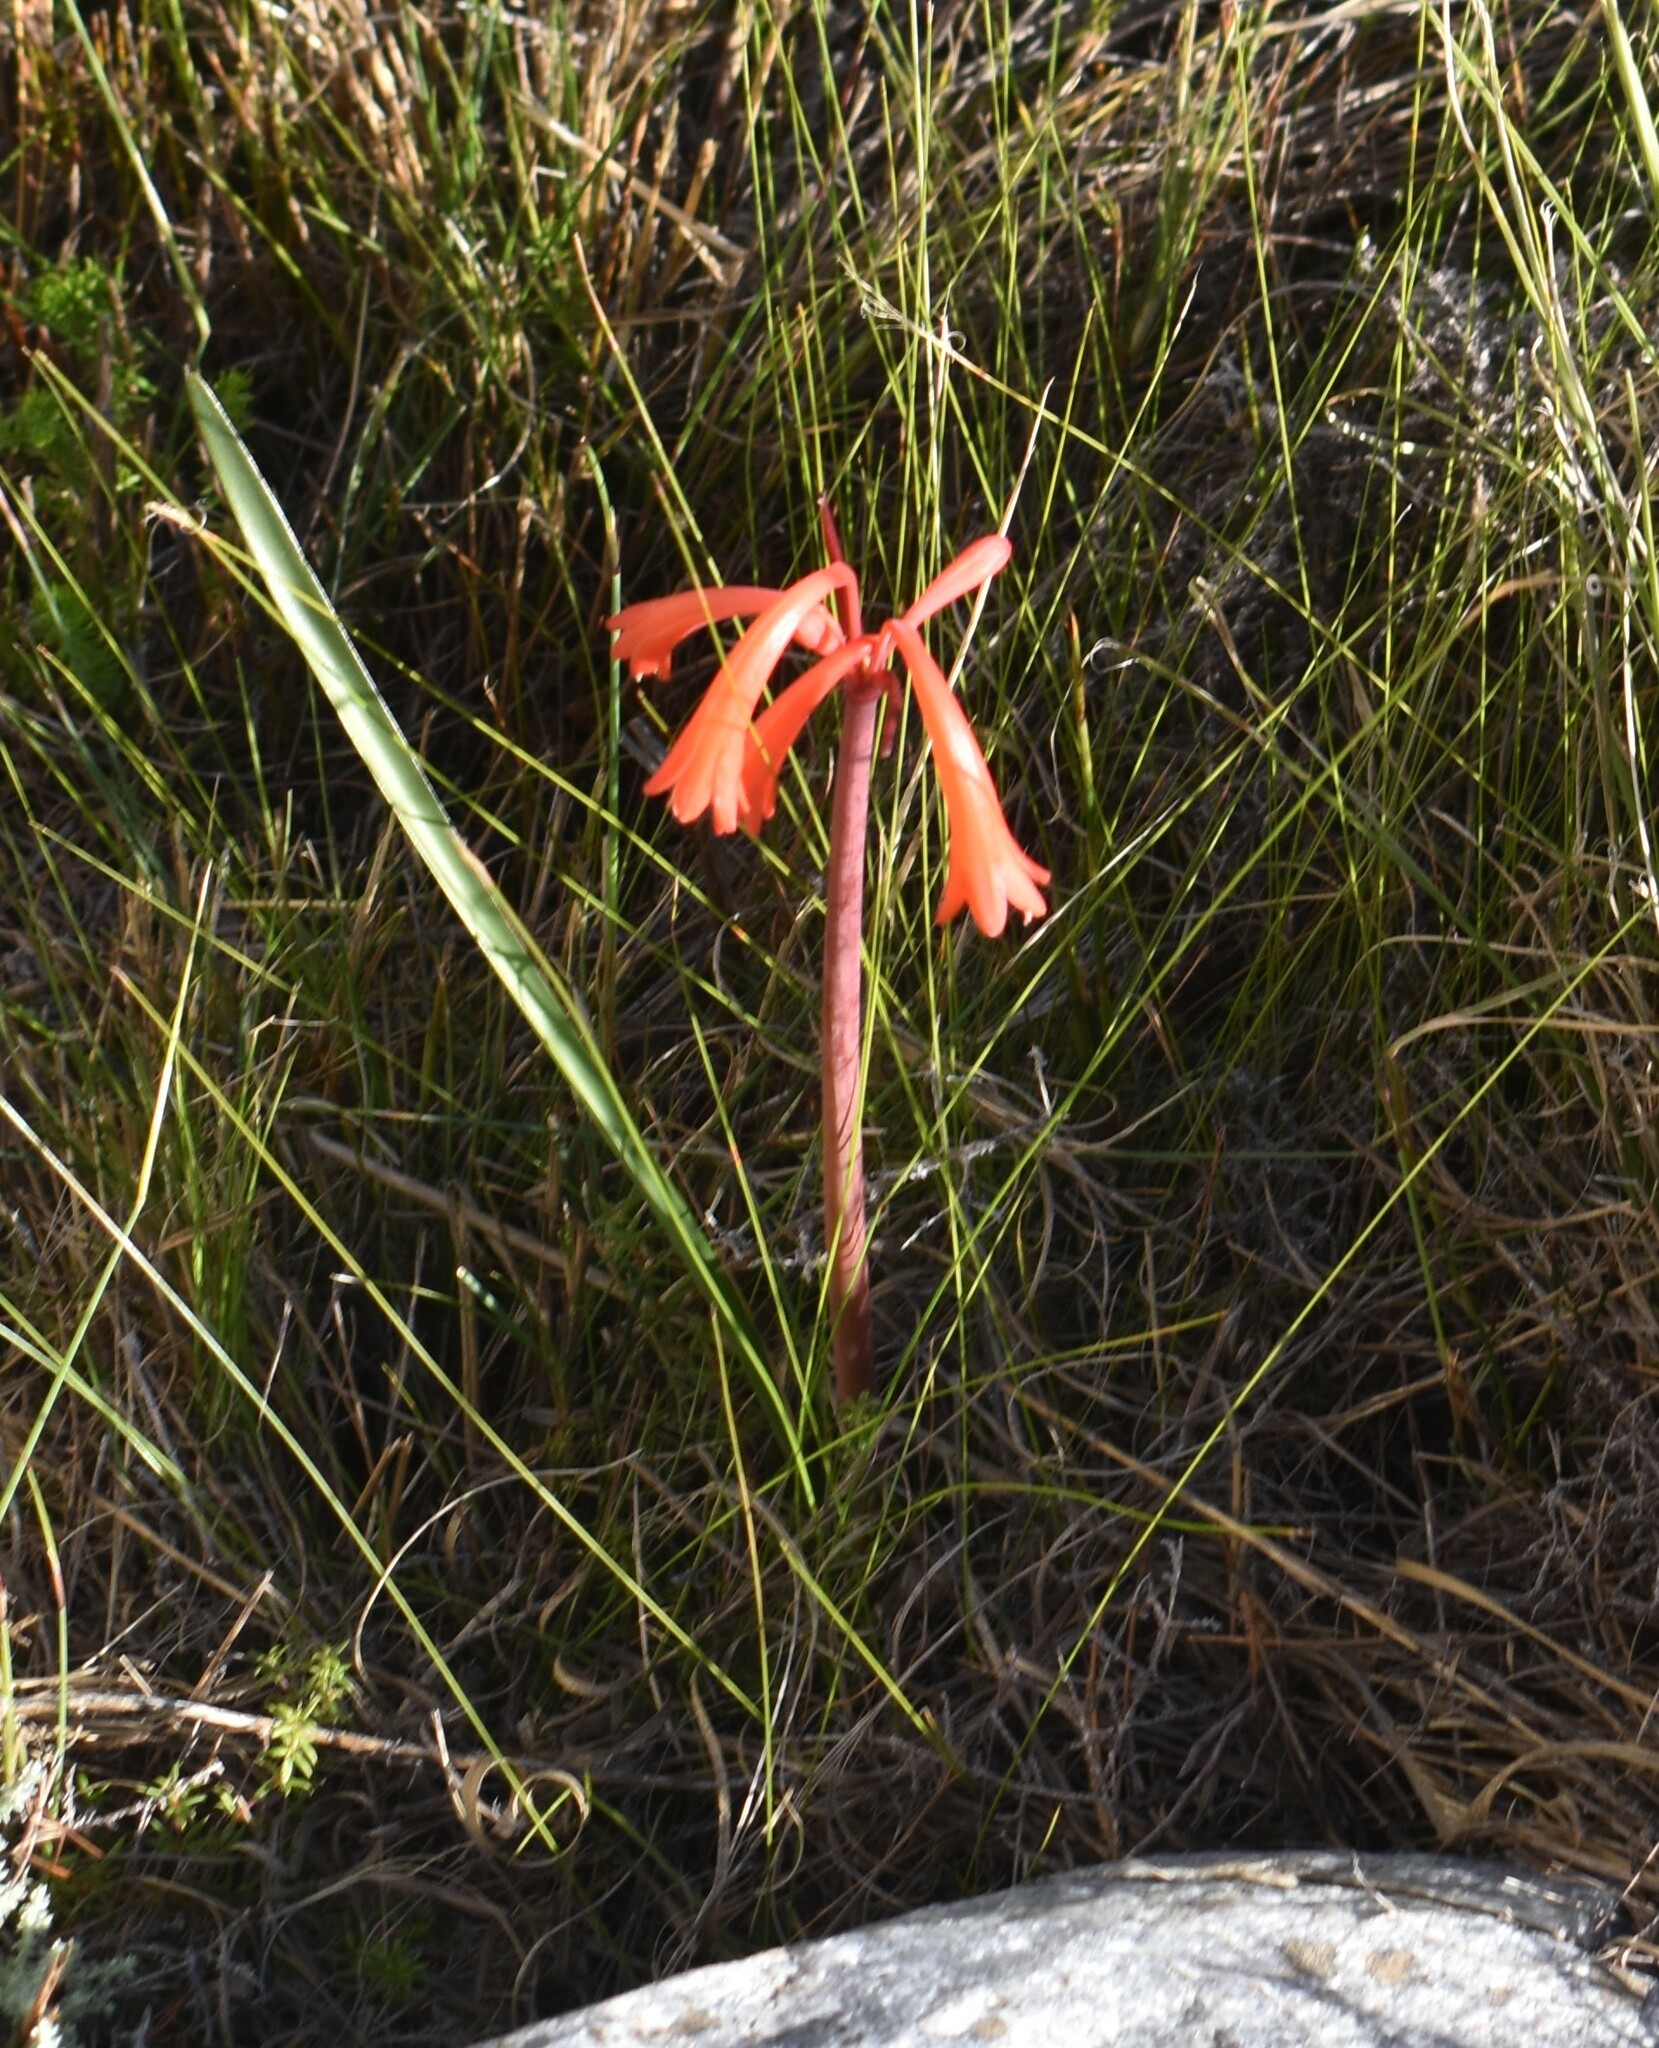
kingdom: Plantae
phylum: Tracheophyta
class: Liliopsida
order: Asparagales
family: Amaryllidaceae
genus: Cyrtanthus
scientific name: Cyrtanthus angustifolius
